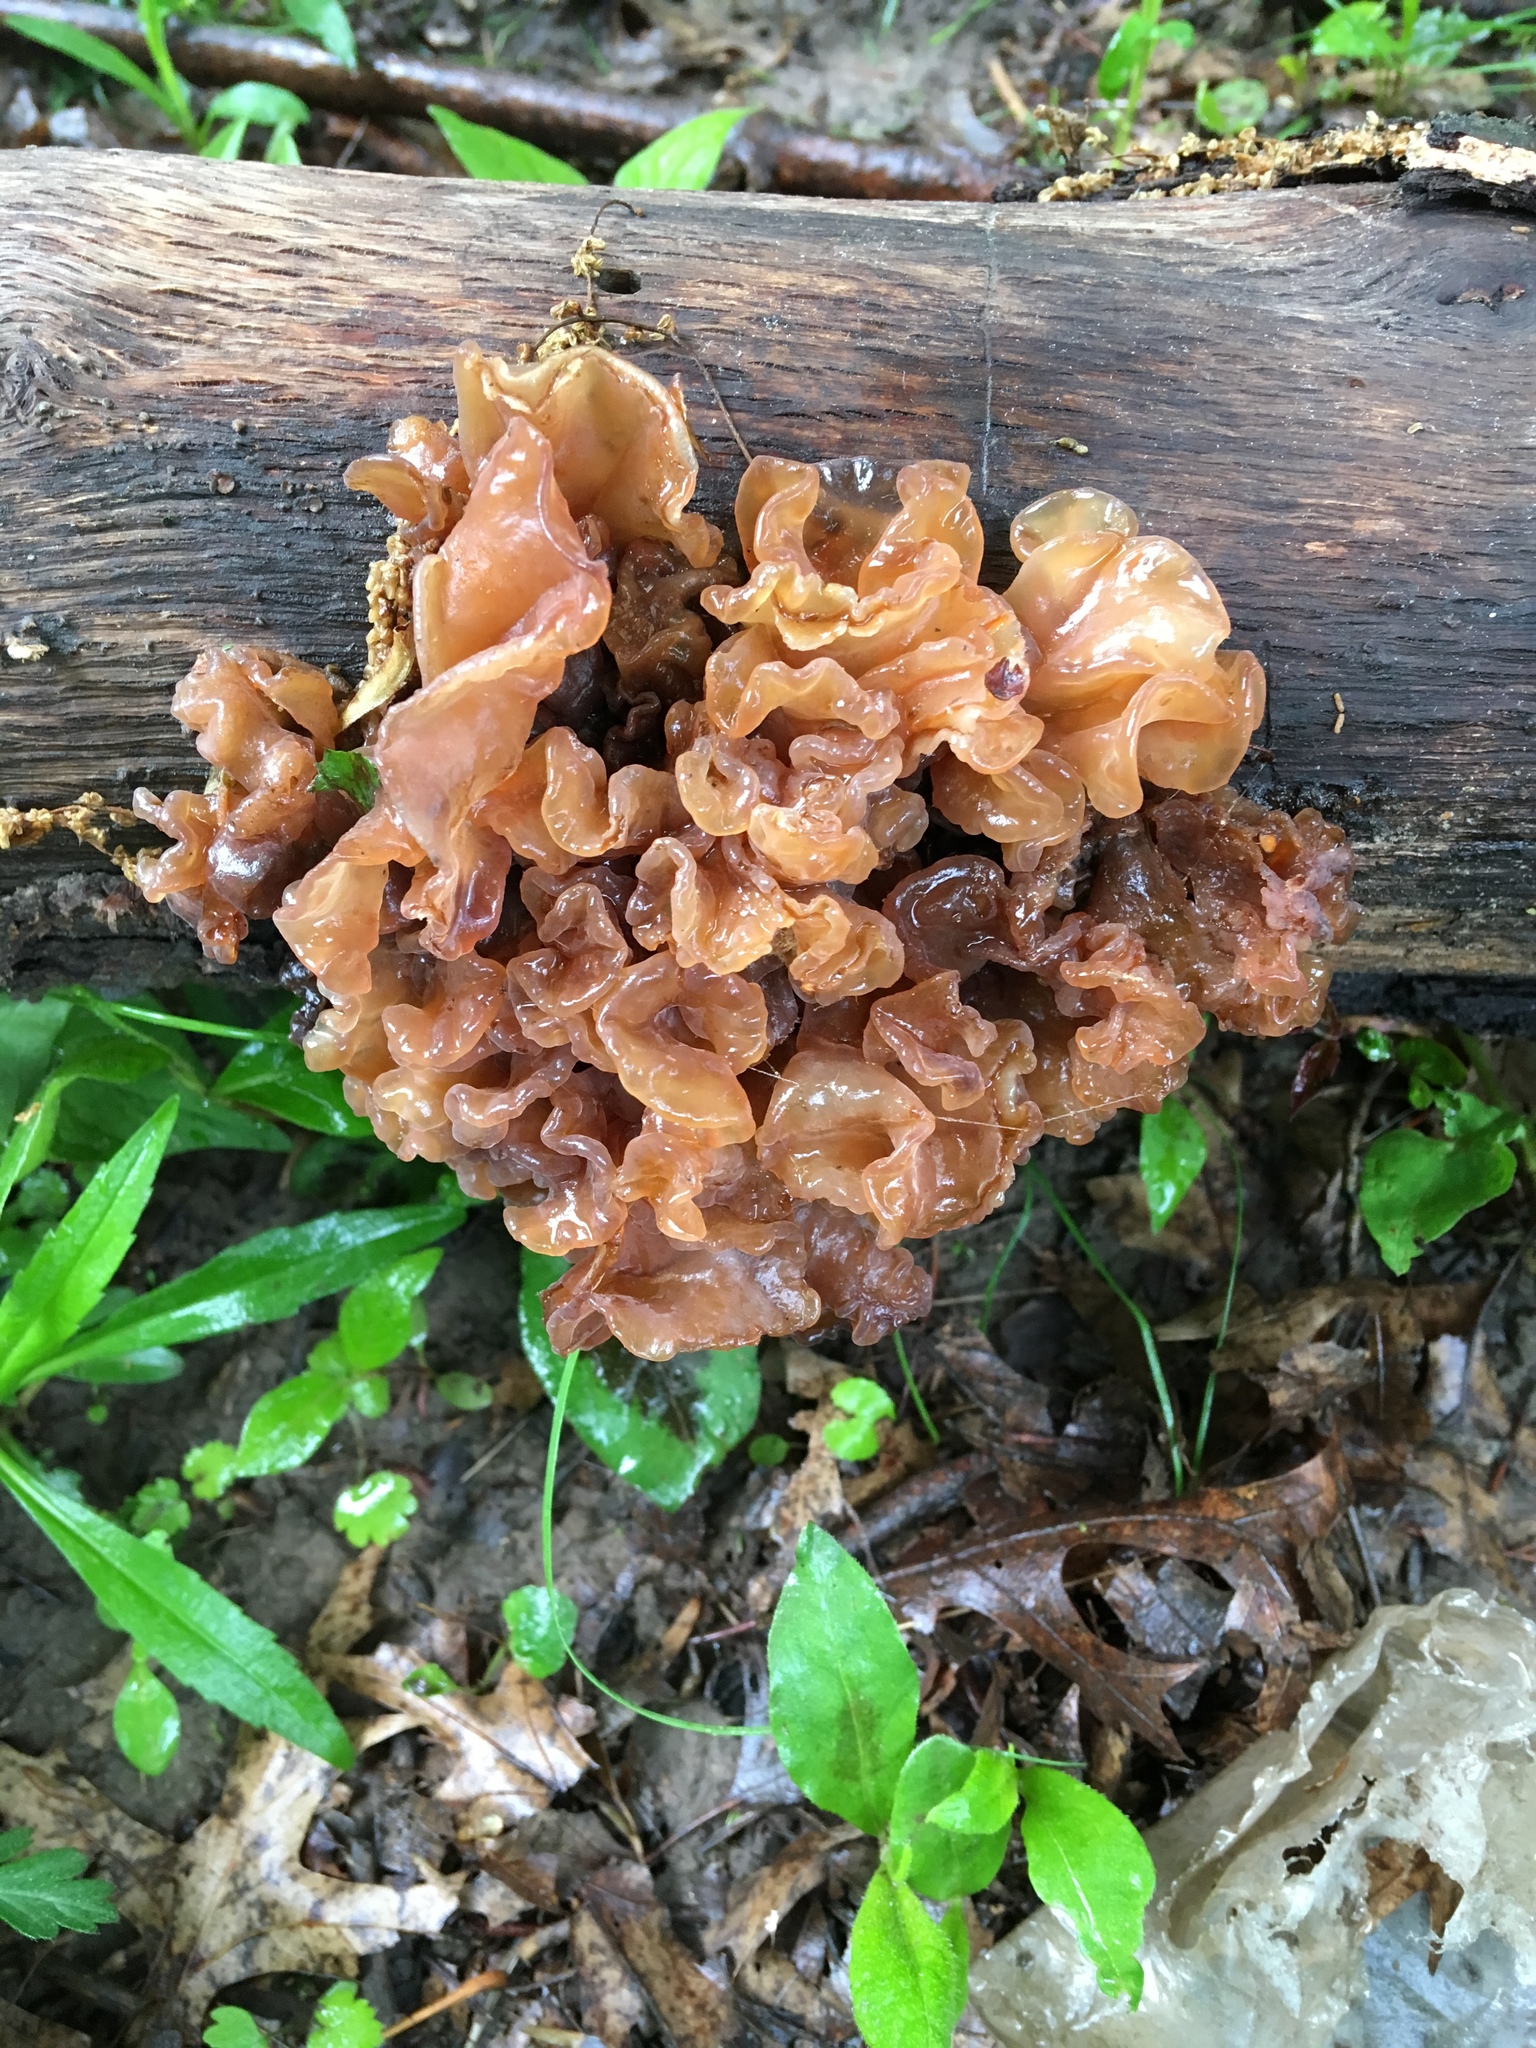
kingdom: Fungi
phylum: Basidiomycota
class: Tremellomycetes
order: Tremellales
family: Tremellaceae
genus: Phaeotremella
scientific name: Phaeotremella foliacea
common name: Leafy brain
